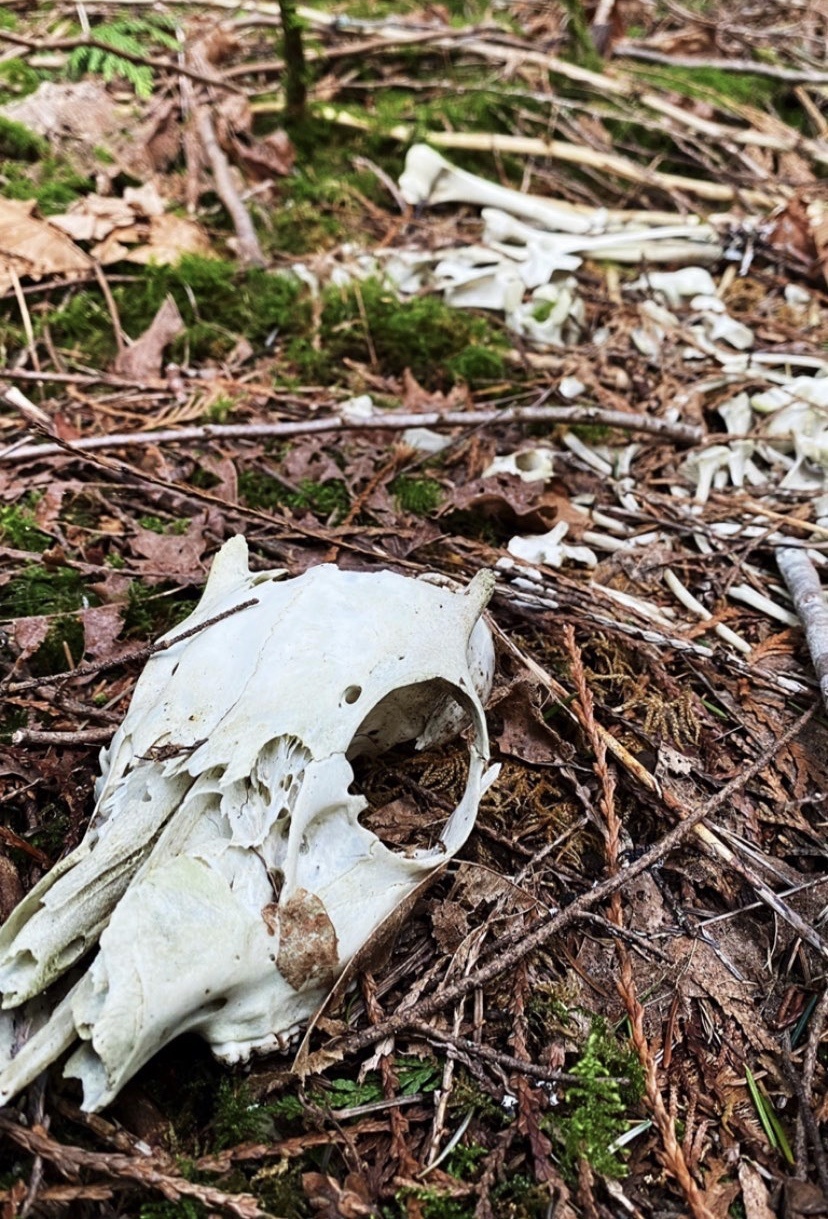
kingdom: Animalia
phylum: Chordata
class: Mammalia
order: Artiodactyla
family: Cervidae
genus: Odocoileus
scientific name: Odocoileus hemionus
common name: Mule deer
